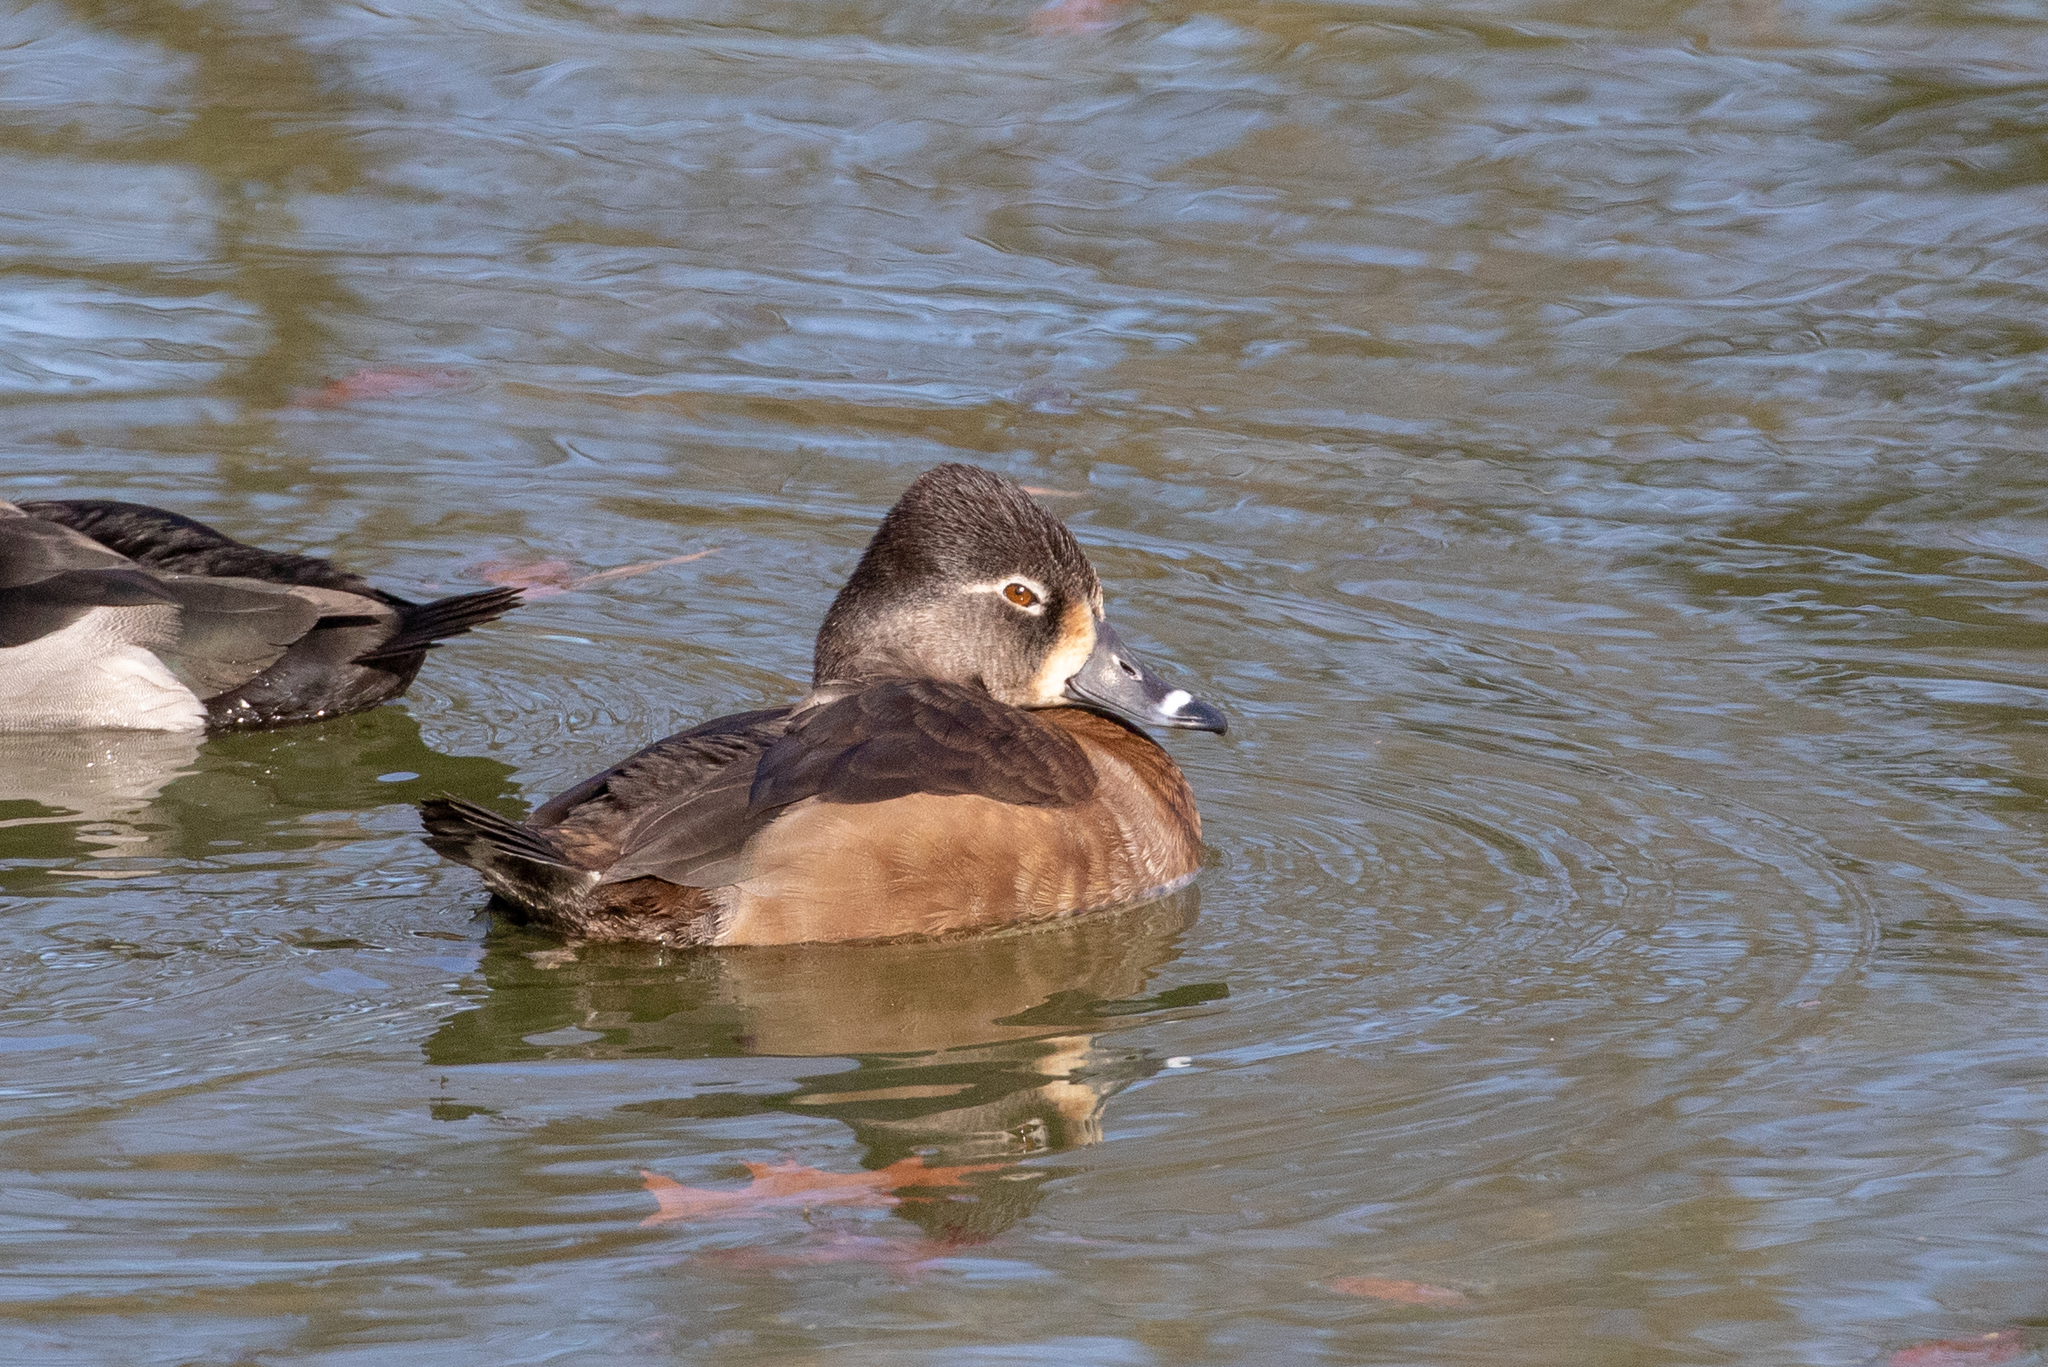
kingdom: Animalia
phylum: Chordata
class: Aves
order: Anseriformes
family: Anatidae
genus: Aythya
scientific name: Aythya collaris
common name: Ring-necked duck
